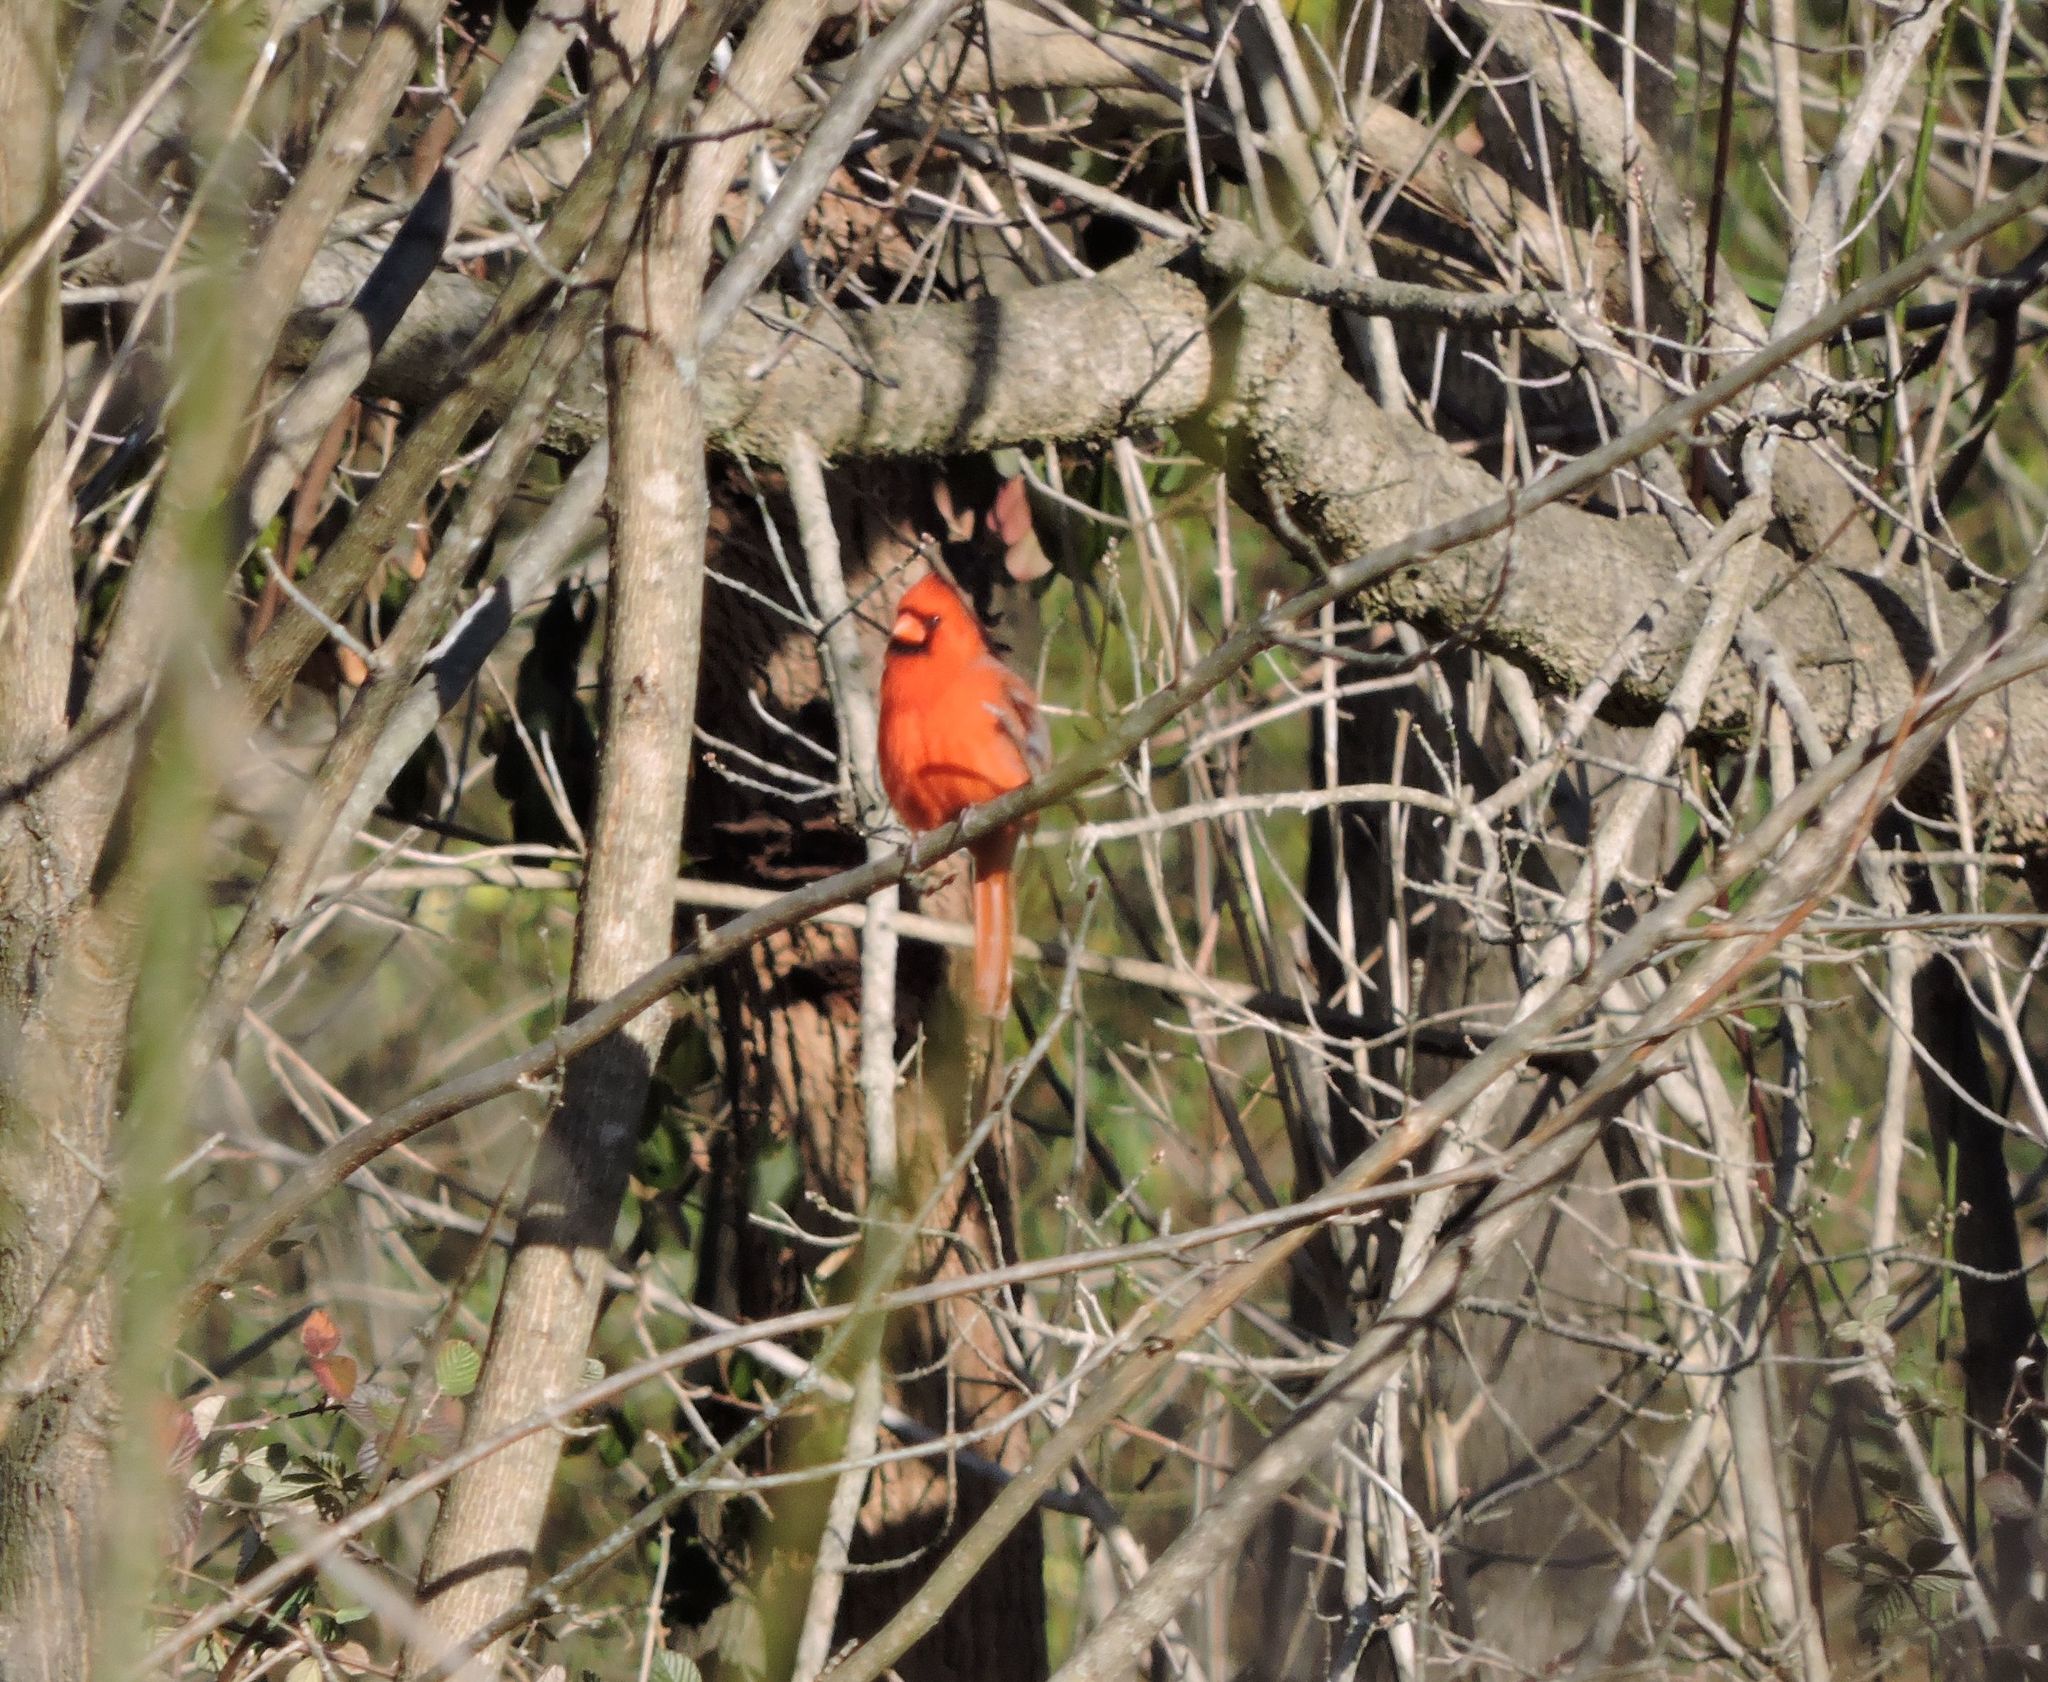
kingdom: Animalia
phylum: Chordata
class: Aves
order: Passeriformes
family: Cardinalidae
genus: Cardinalis
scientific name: Cardinalis cardinalis
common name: Northern cardinal
